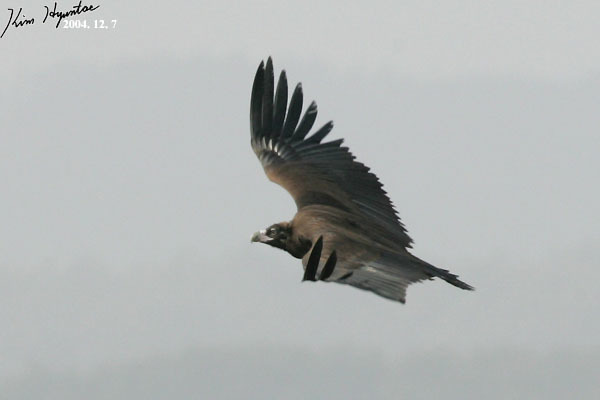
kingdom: Animalia
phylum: Chordata
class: Aves
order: Accipitriformes
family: Accipitridae
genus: Aegypius
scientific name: Aegypius monachus
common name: Cinereous vulture
